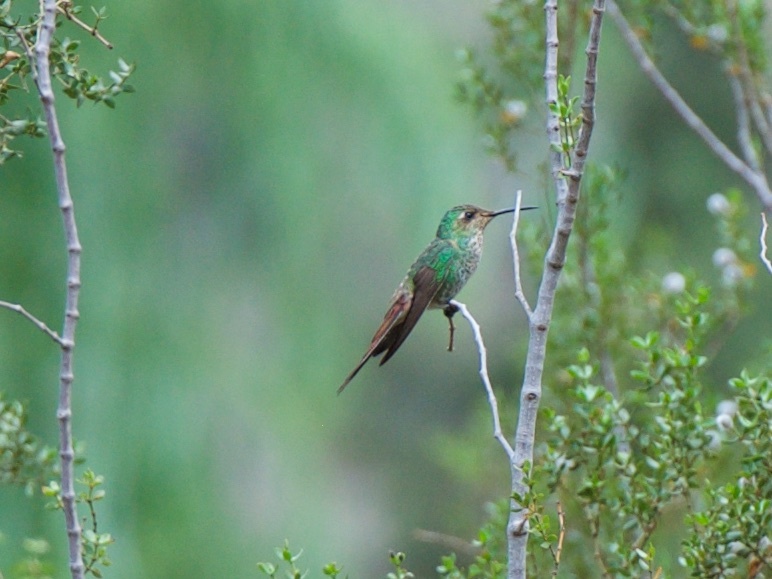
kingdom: Animalia
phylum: Chordata
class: Aves
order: Apodiformes
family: Trochilidae
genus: Sappho
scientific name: Sappho sparganurus
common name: Red-tailed comet
